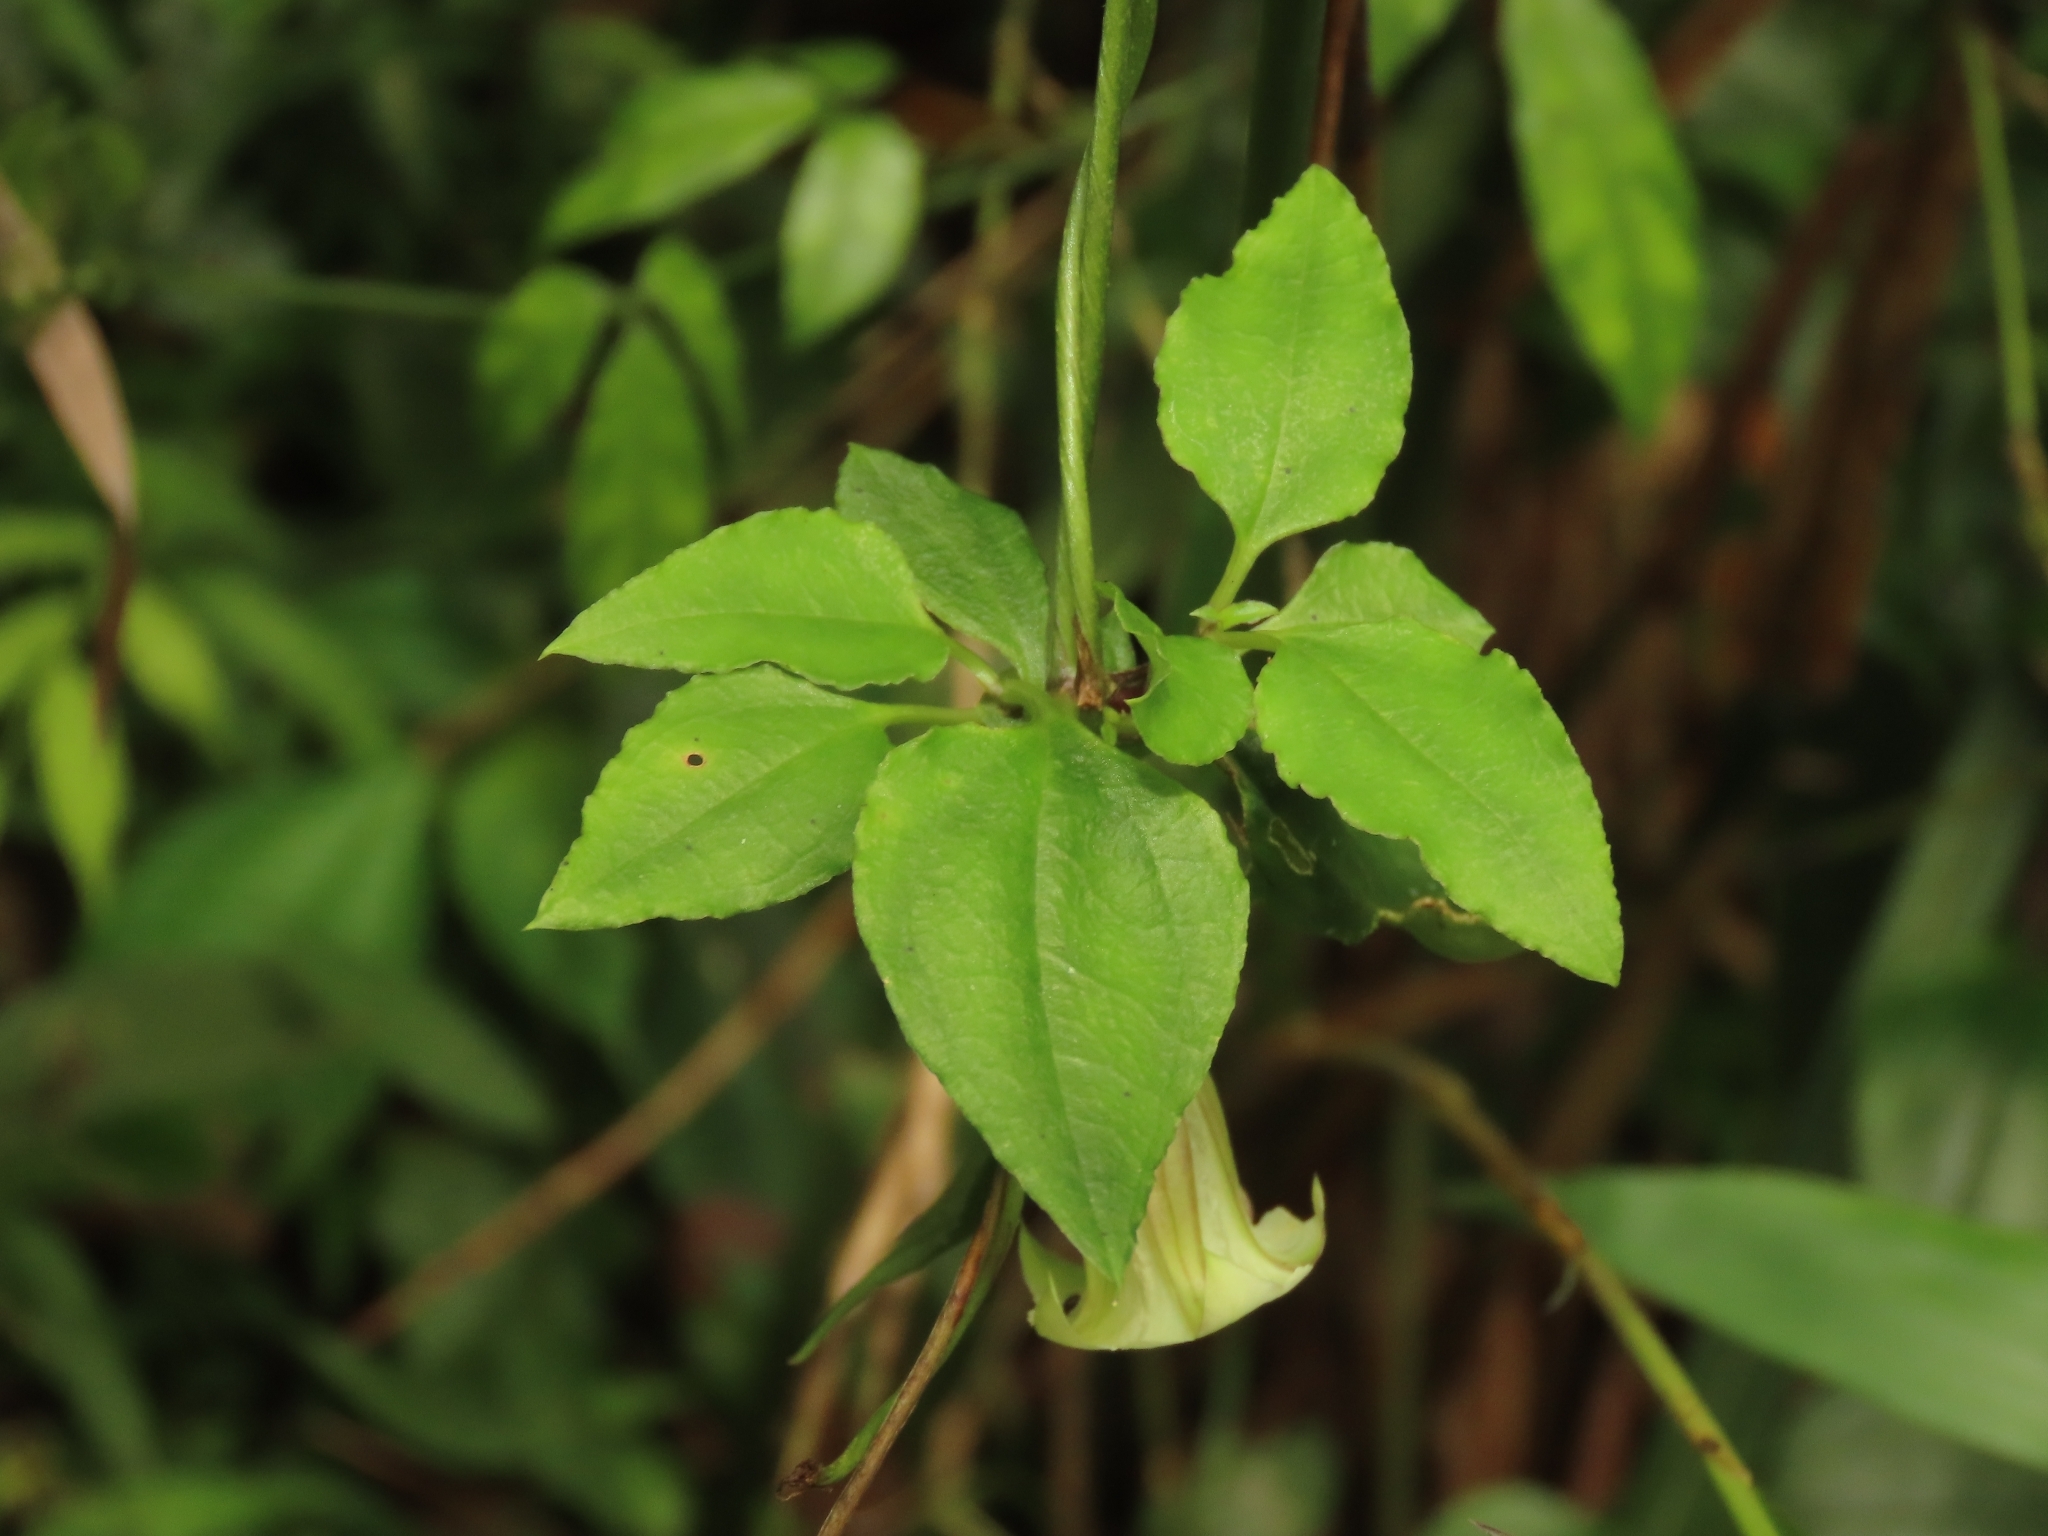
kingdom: Plantae
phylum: Tracheophyta
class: Magnoliopsida
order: Gentianales
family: Gentianaceae
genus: Tripterospermum
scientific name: Tripterospermum taiwanense
